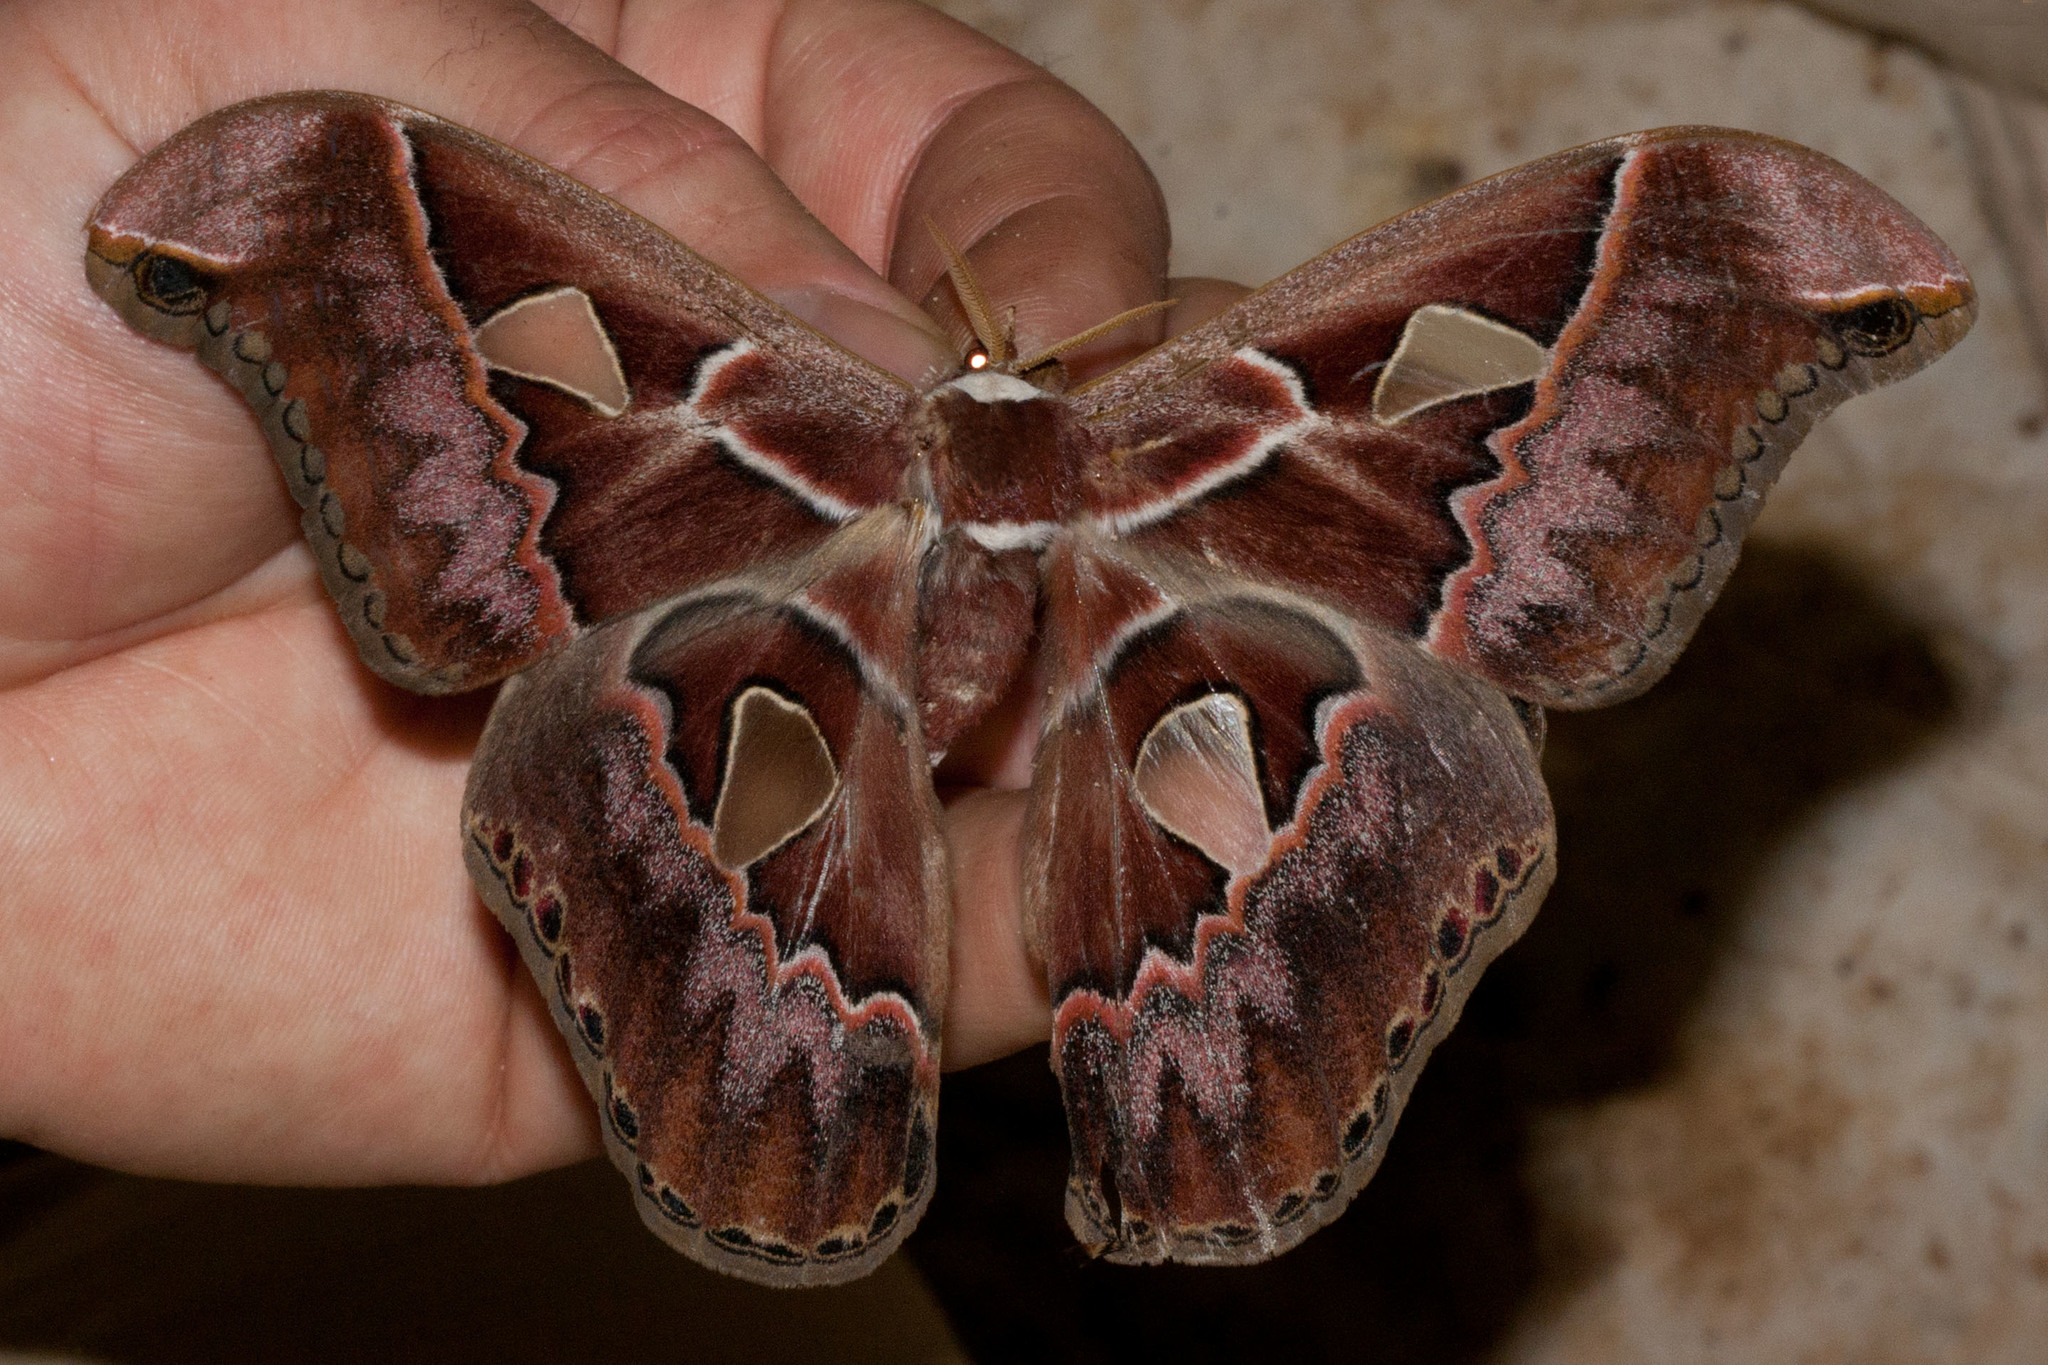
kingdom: Animalia
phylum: Arthropoda
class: Insecta
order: Lepidoptera
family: Saturniidae
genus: Rothschildia
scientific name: Rothschildia lebeau
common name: Lebeau's rothschildia
